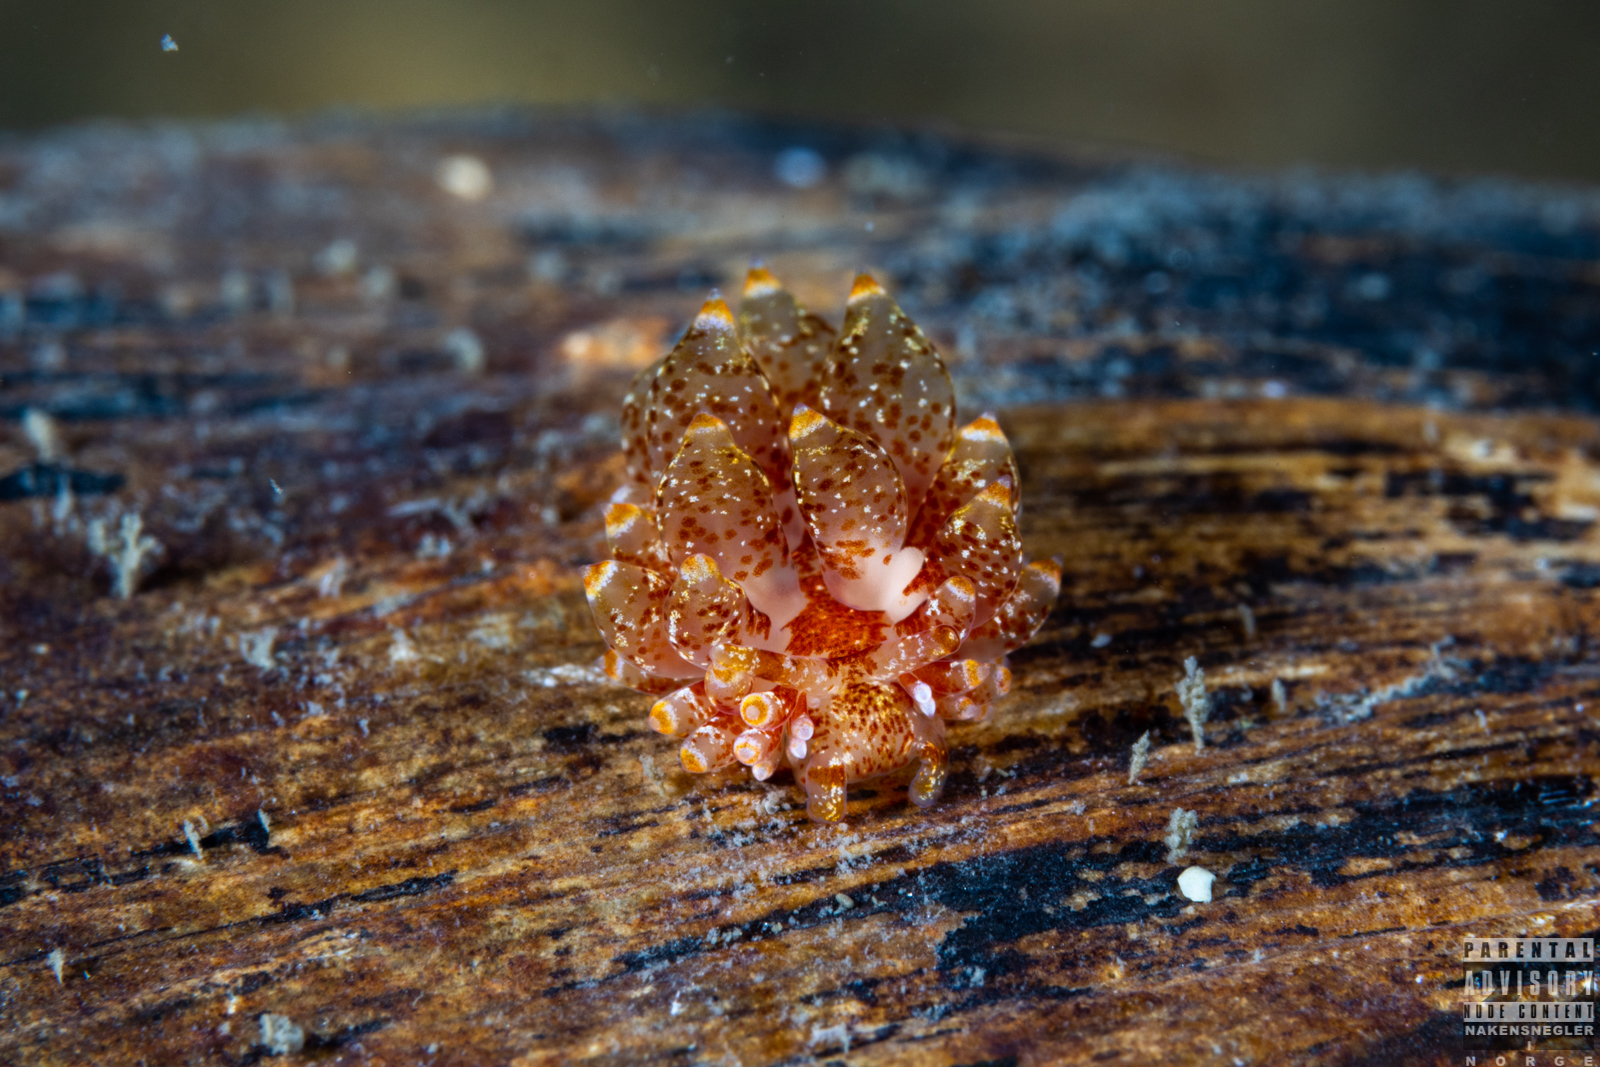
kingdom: Animalia
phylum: Mollusca
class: Gastropoda
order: Nudibranchia
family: Eubranchidae
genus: Amphorina
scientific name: Amphorina pallida
